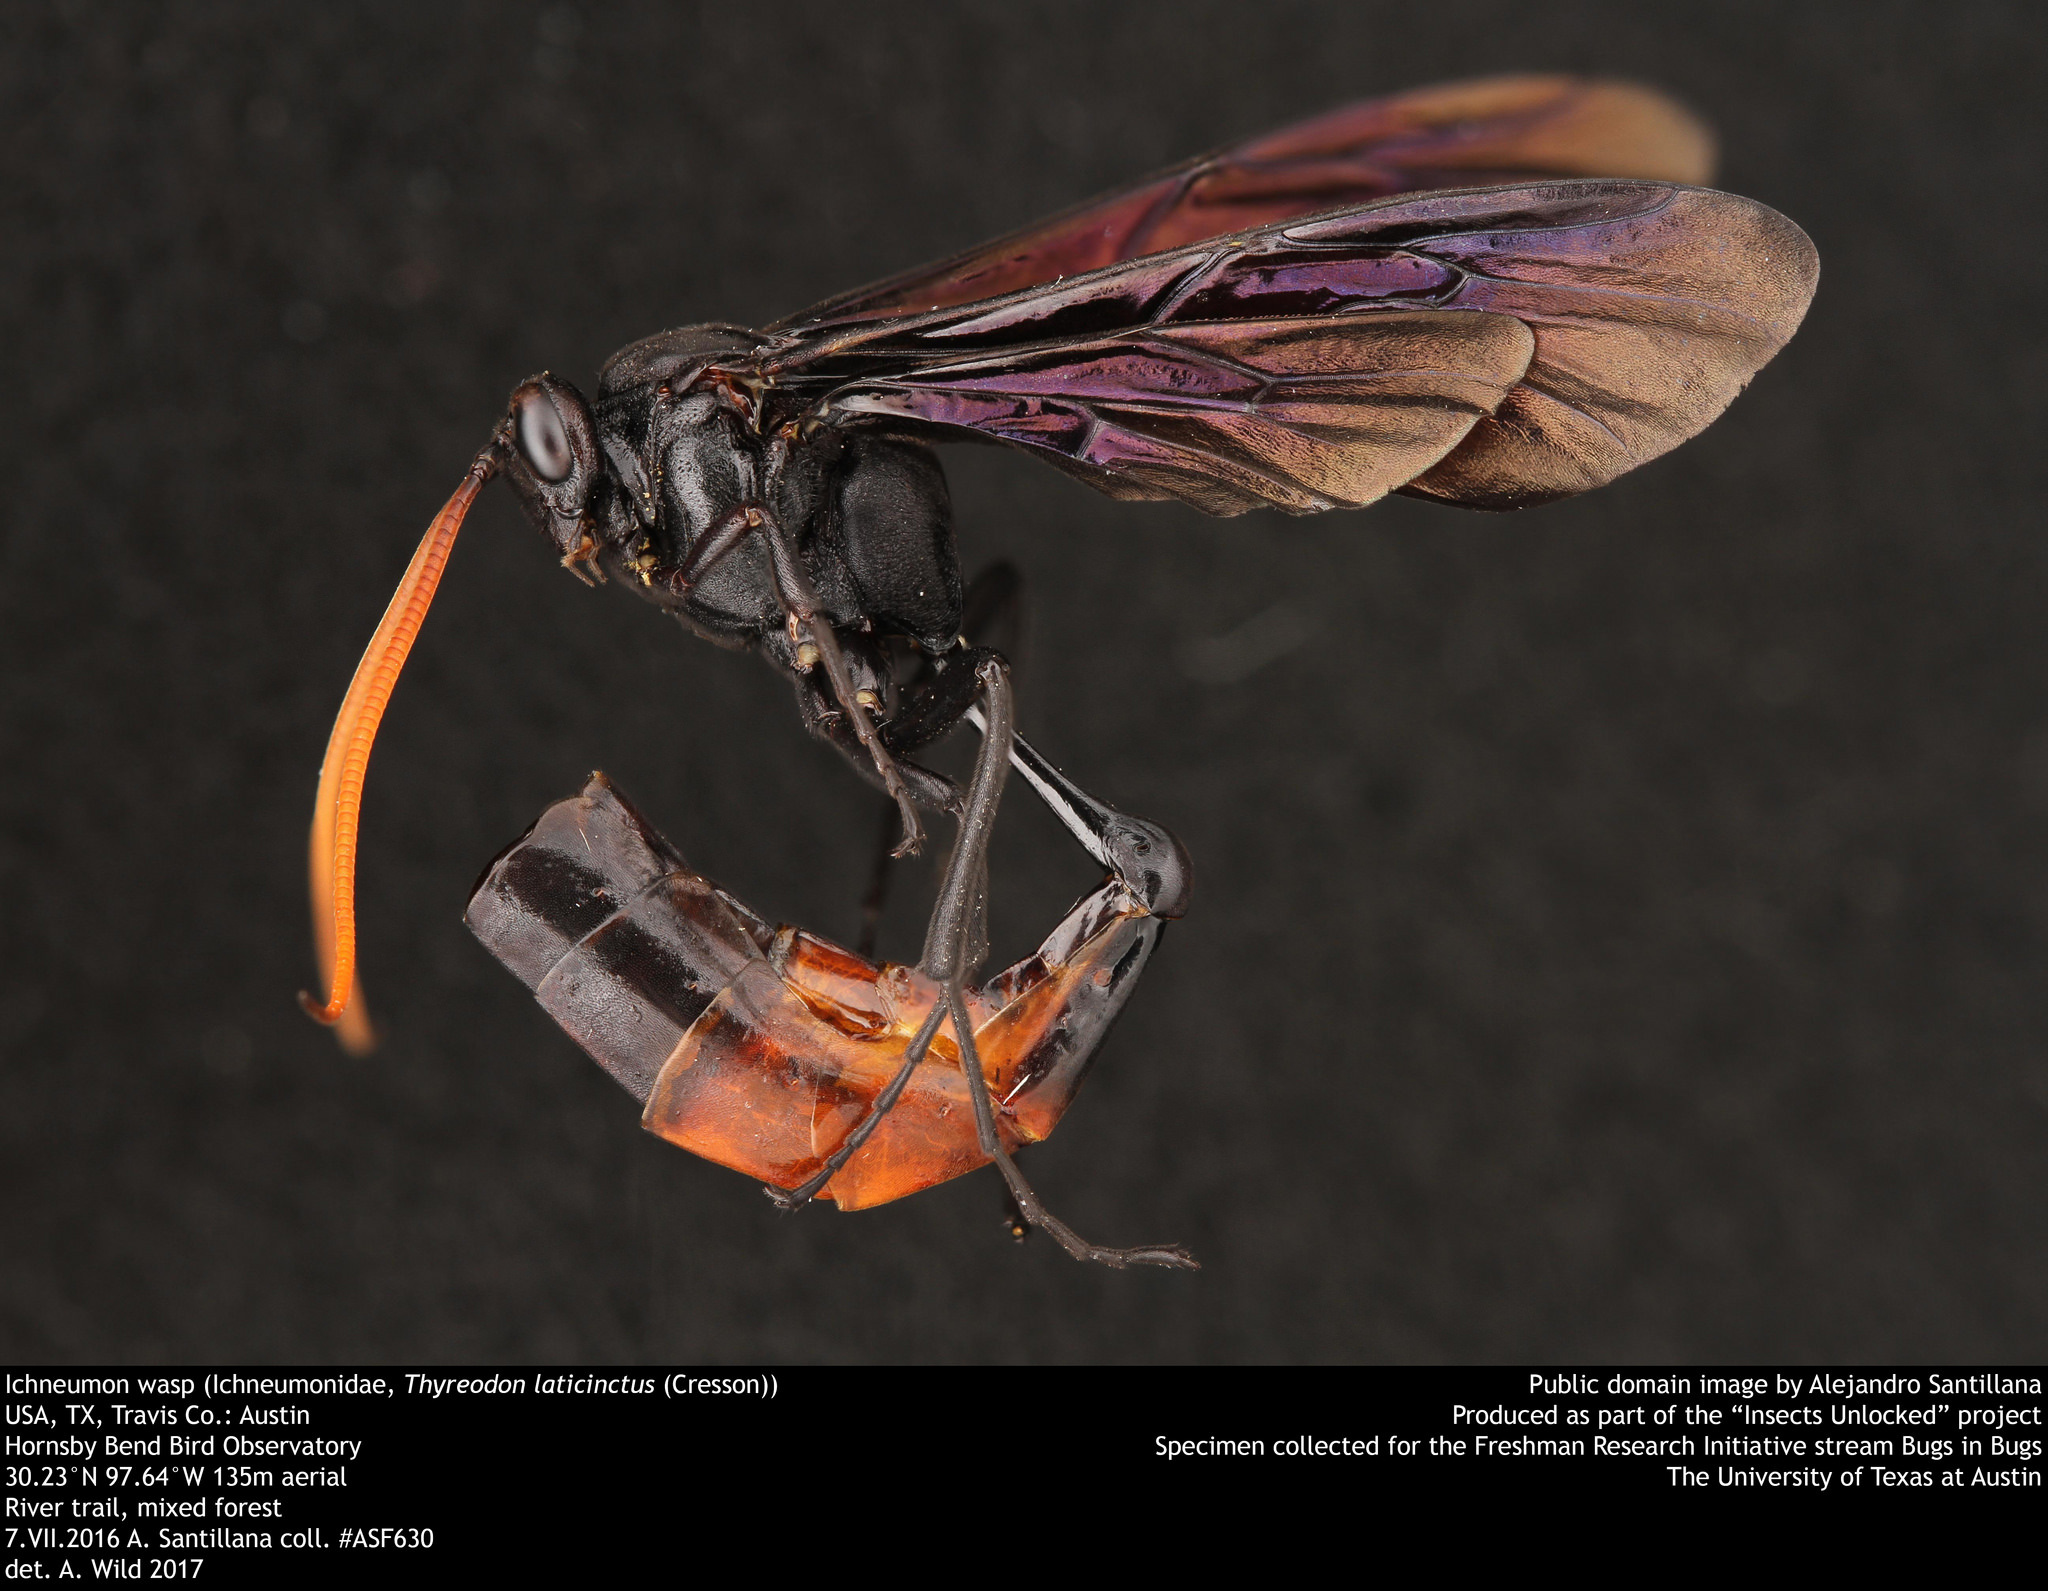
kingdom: Animalia
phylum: Arthropoda
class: Insecta
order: Hymenoptera
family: Ichneumonidae
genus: Thyreodon
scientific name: Thyreodon fernaldi
